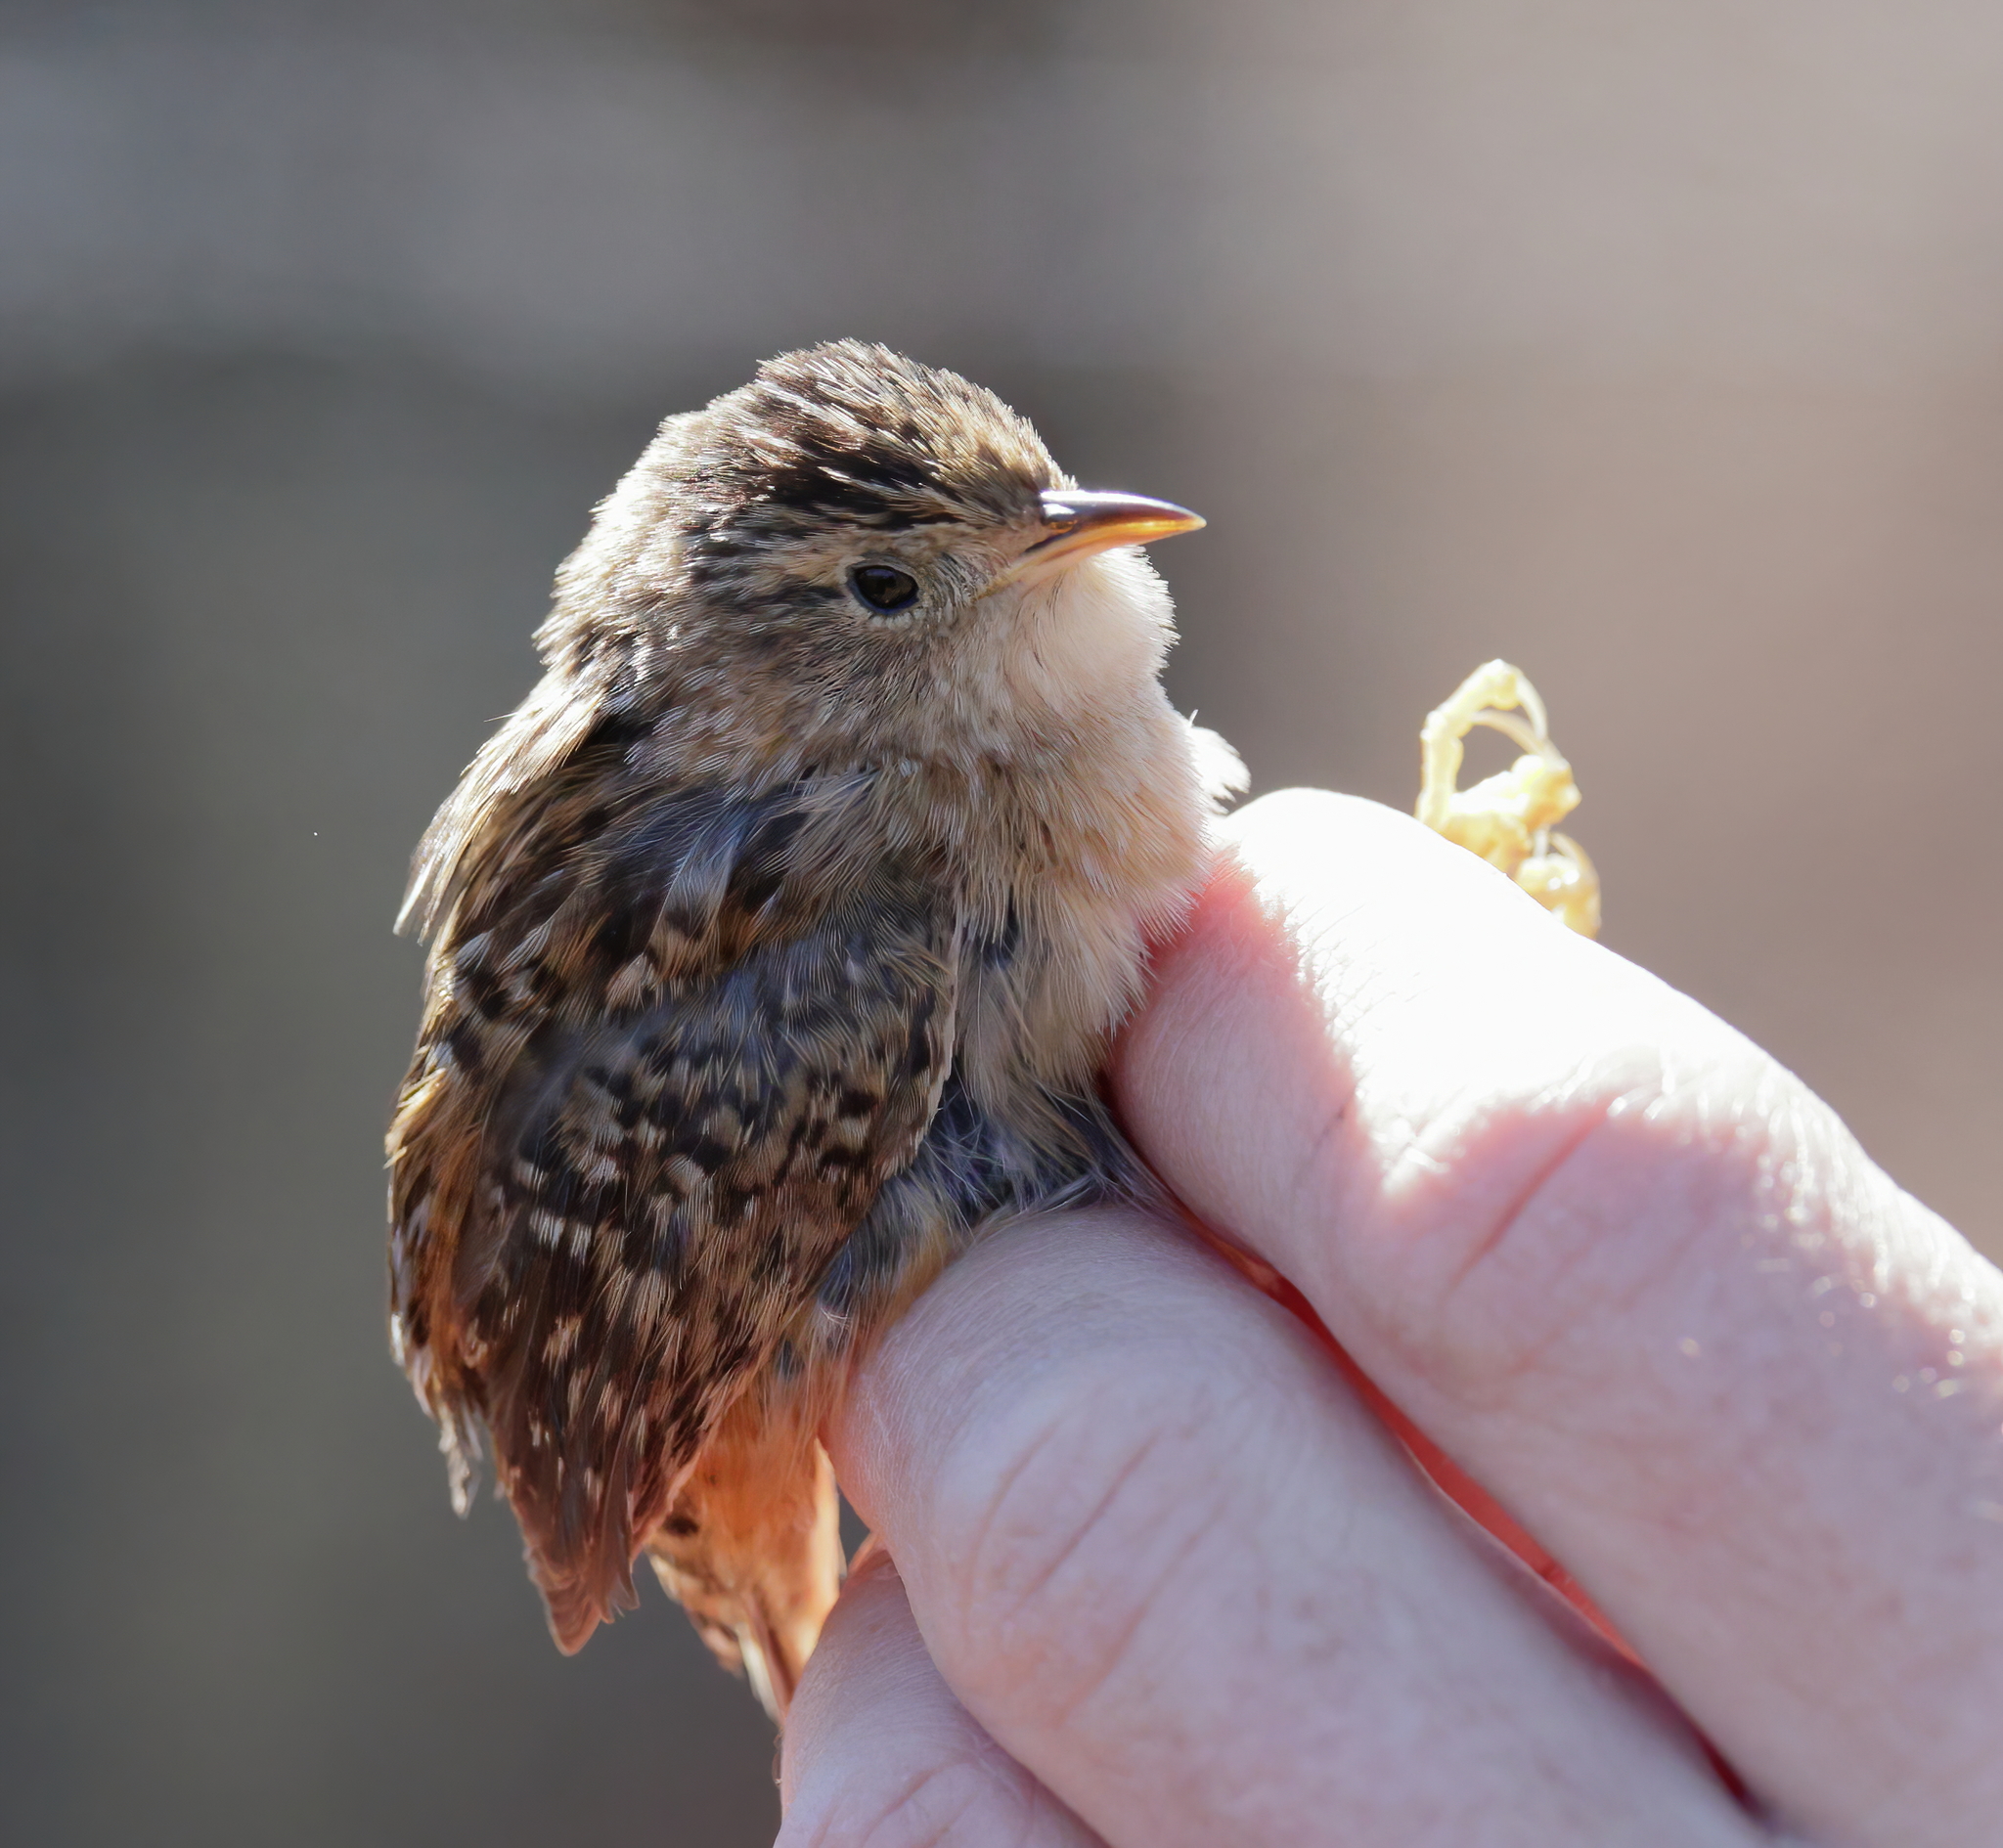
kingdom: Animalia
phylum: Chordata
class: Aves
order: Passeriformes
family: Troglodytidae
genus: Cistothorus
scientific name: Cistothorus platensis
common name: Sedge wren
